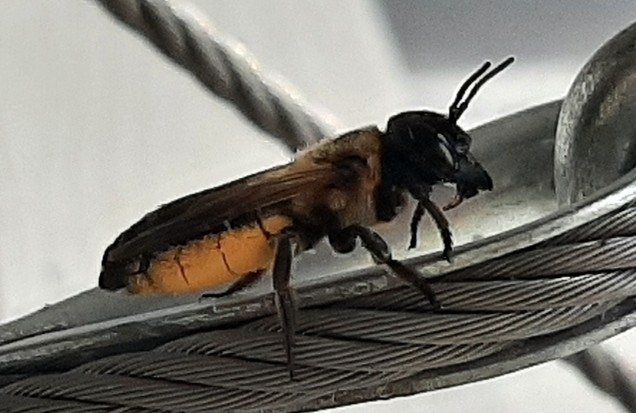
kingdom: Animalia
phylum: Arthropoda
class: Insecta
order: Hymenoptera
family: Megachilidae
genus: Megachile
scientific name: Megachile sculpturalis
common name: Sculptured resin bee
